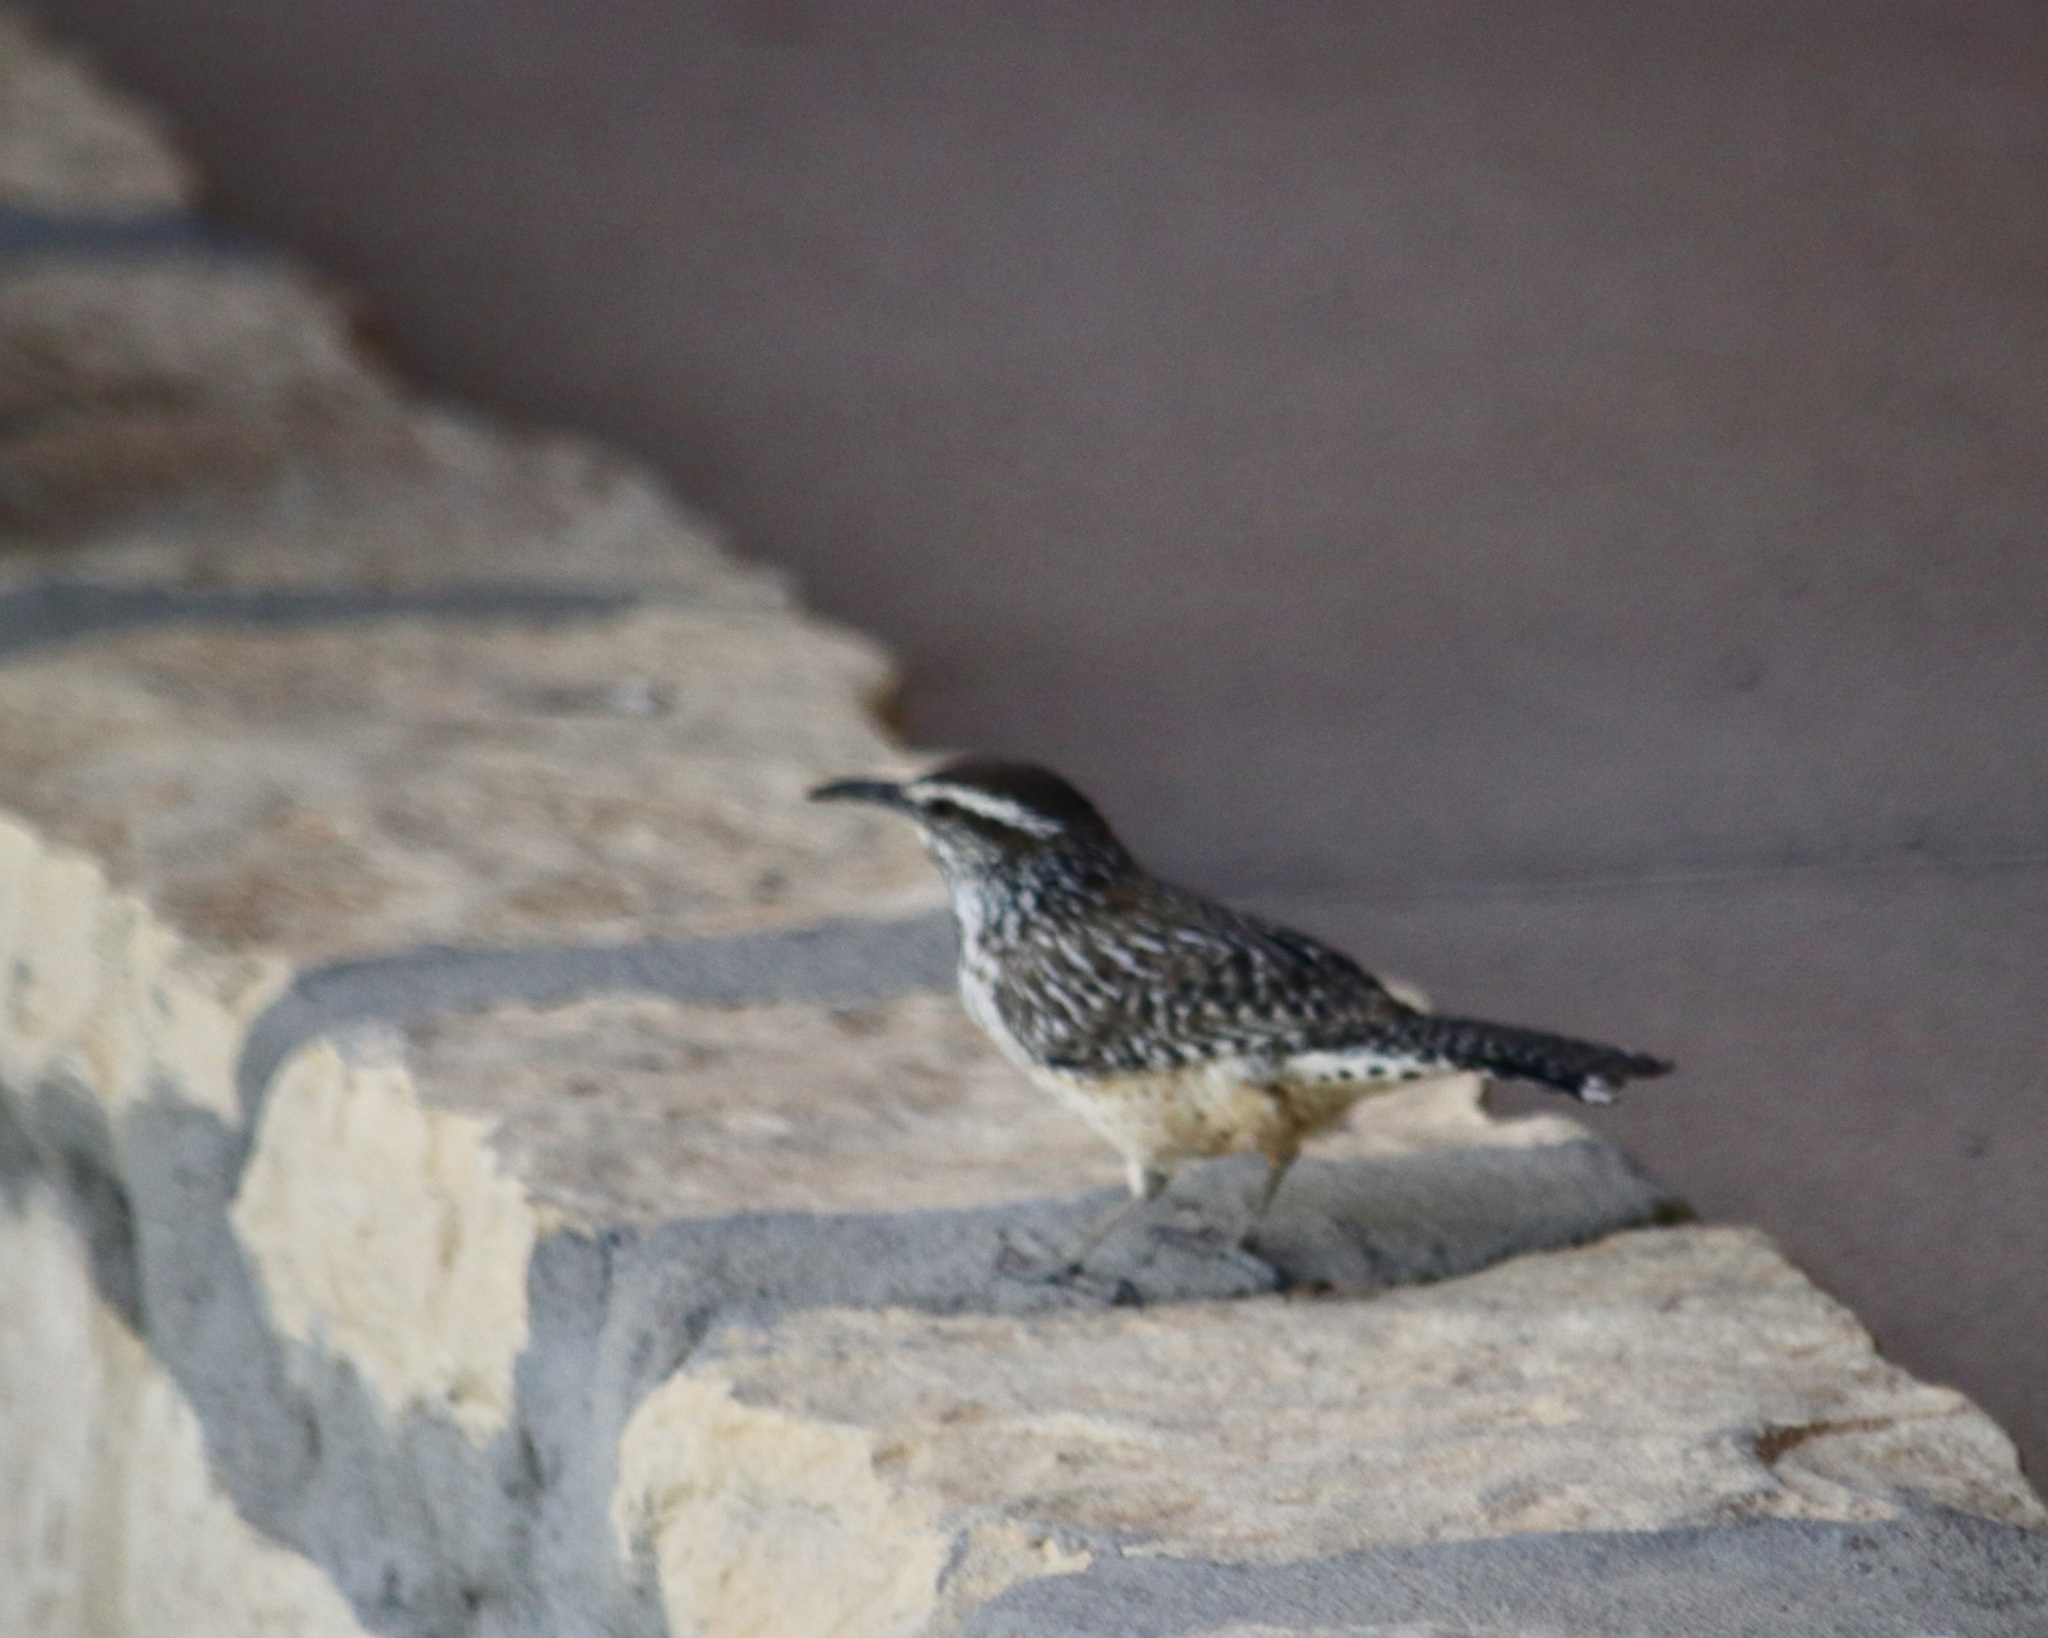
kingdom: Animalia
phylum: Chordata
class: Aves
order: Passeriformes
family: Troglodytidae
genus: Campylorhynchus
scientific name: Campylorhynchus brunneicapillus
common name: Cactus wren
